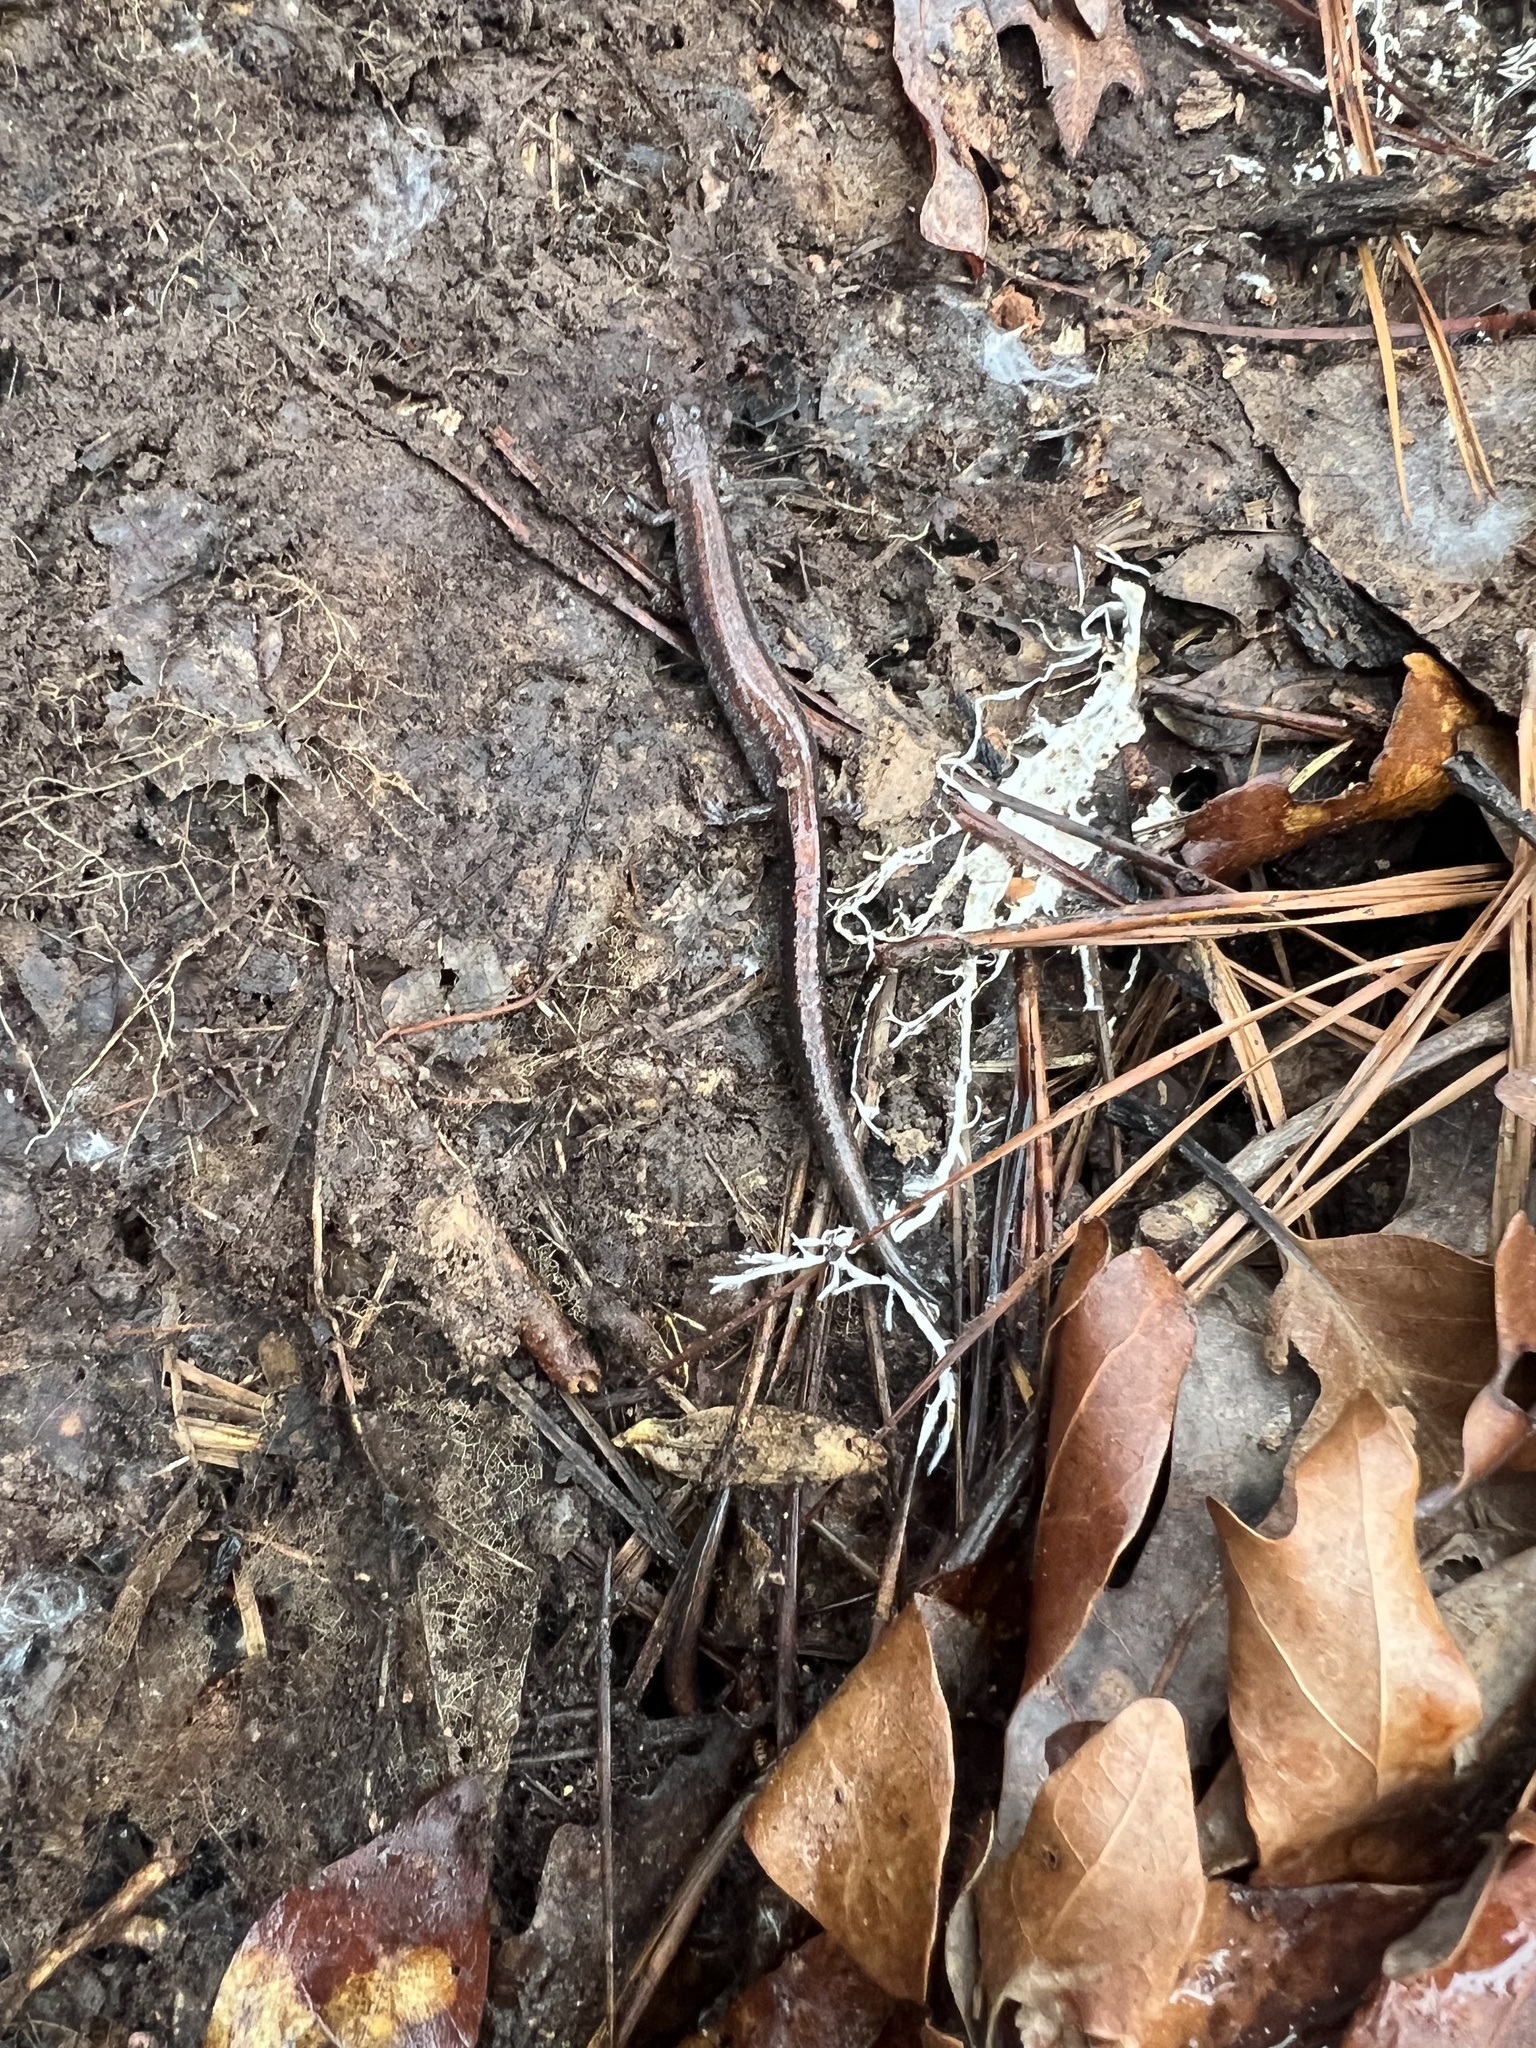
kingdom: Animalia
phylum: Chordata
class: Amphibia
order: Caudata
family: Plethodontidae
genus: Plethodon
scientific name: Plethodon cinereus
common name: Redback salamander
